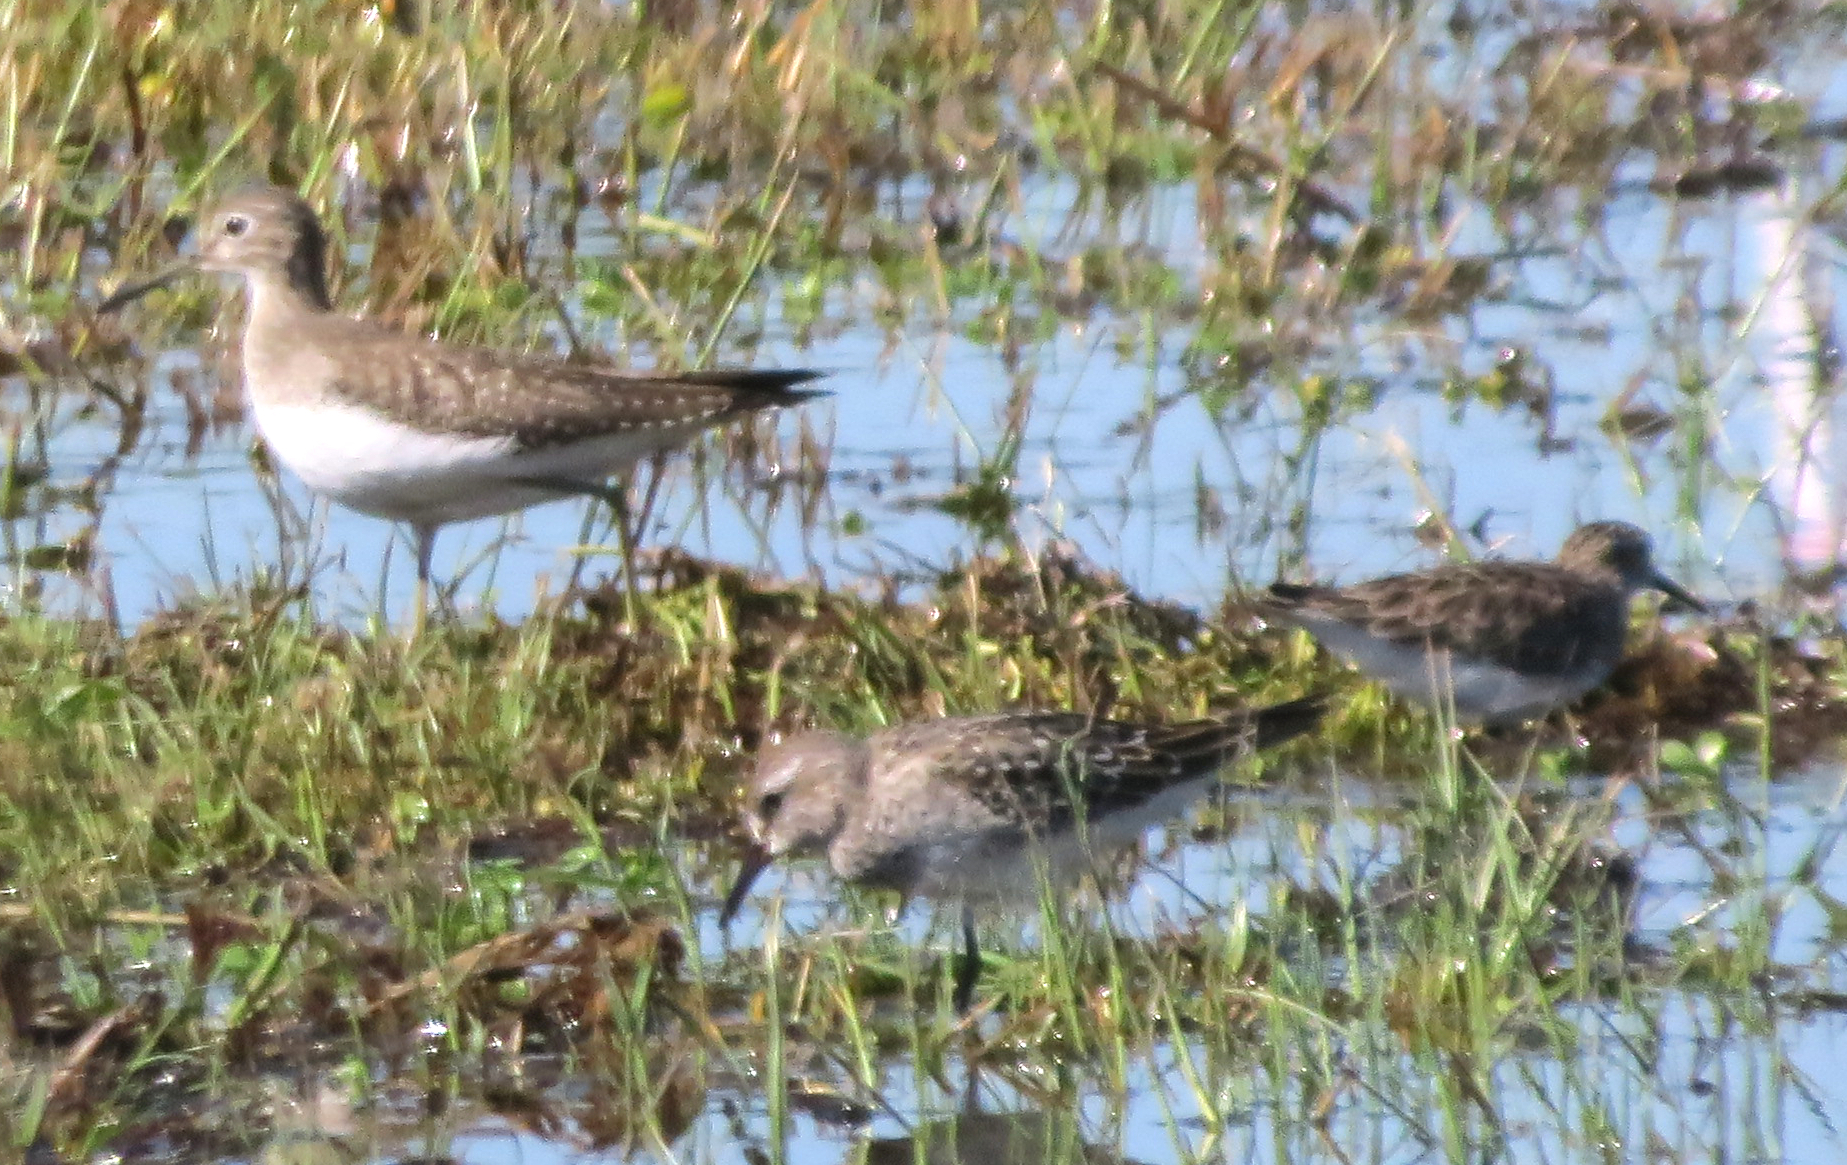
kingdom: Animalia
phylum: Chordata
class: Aves
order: Charadriiformes
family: Scolopacidae
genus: Calidris
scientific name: Calidris fuscicollis
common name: White-rumped sandpiper
